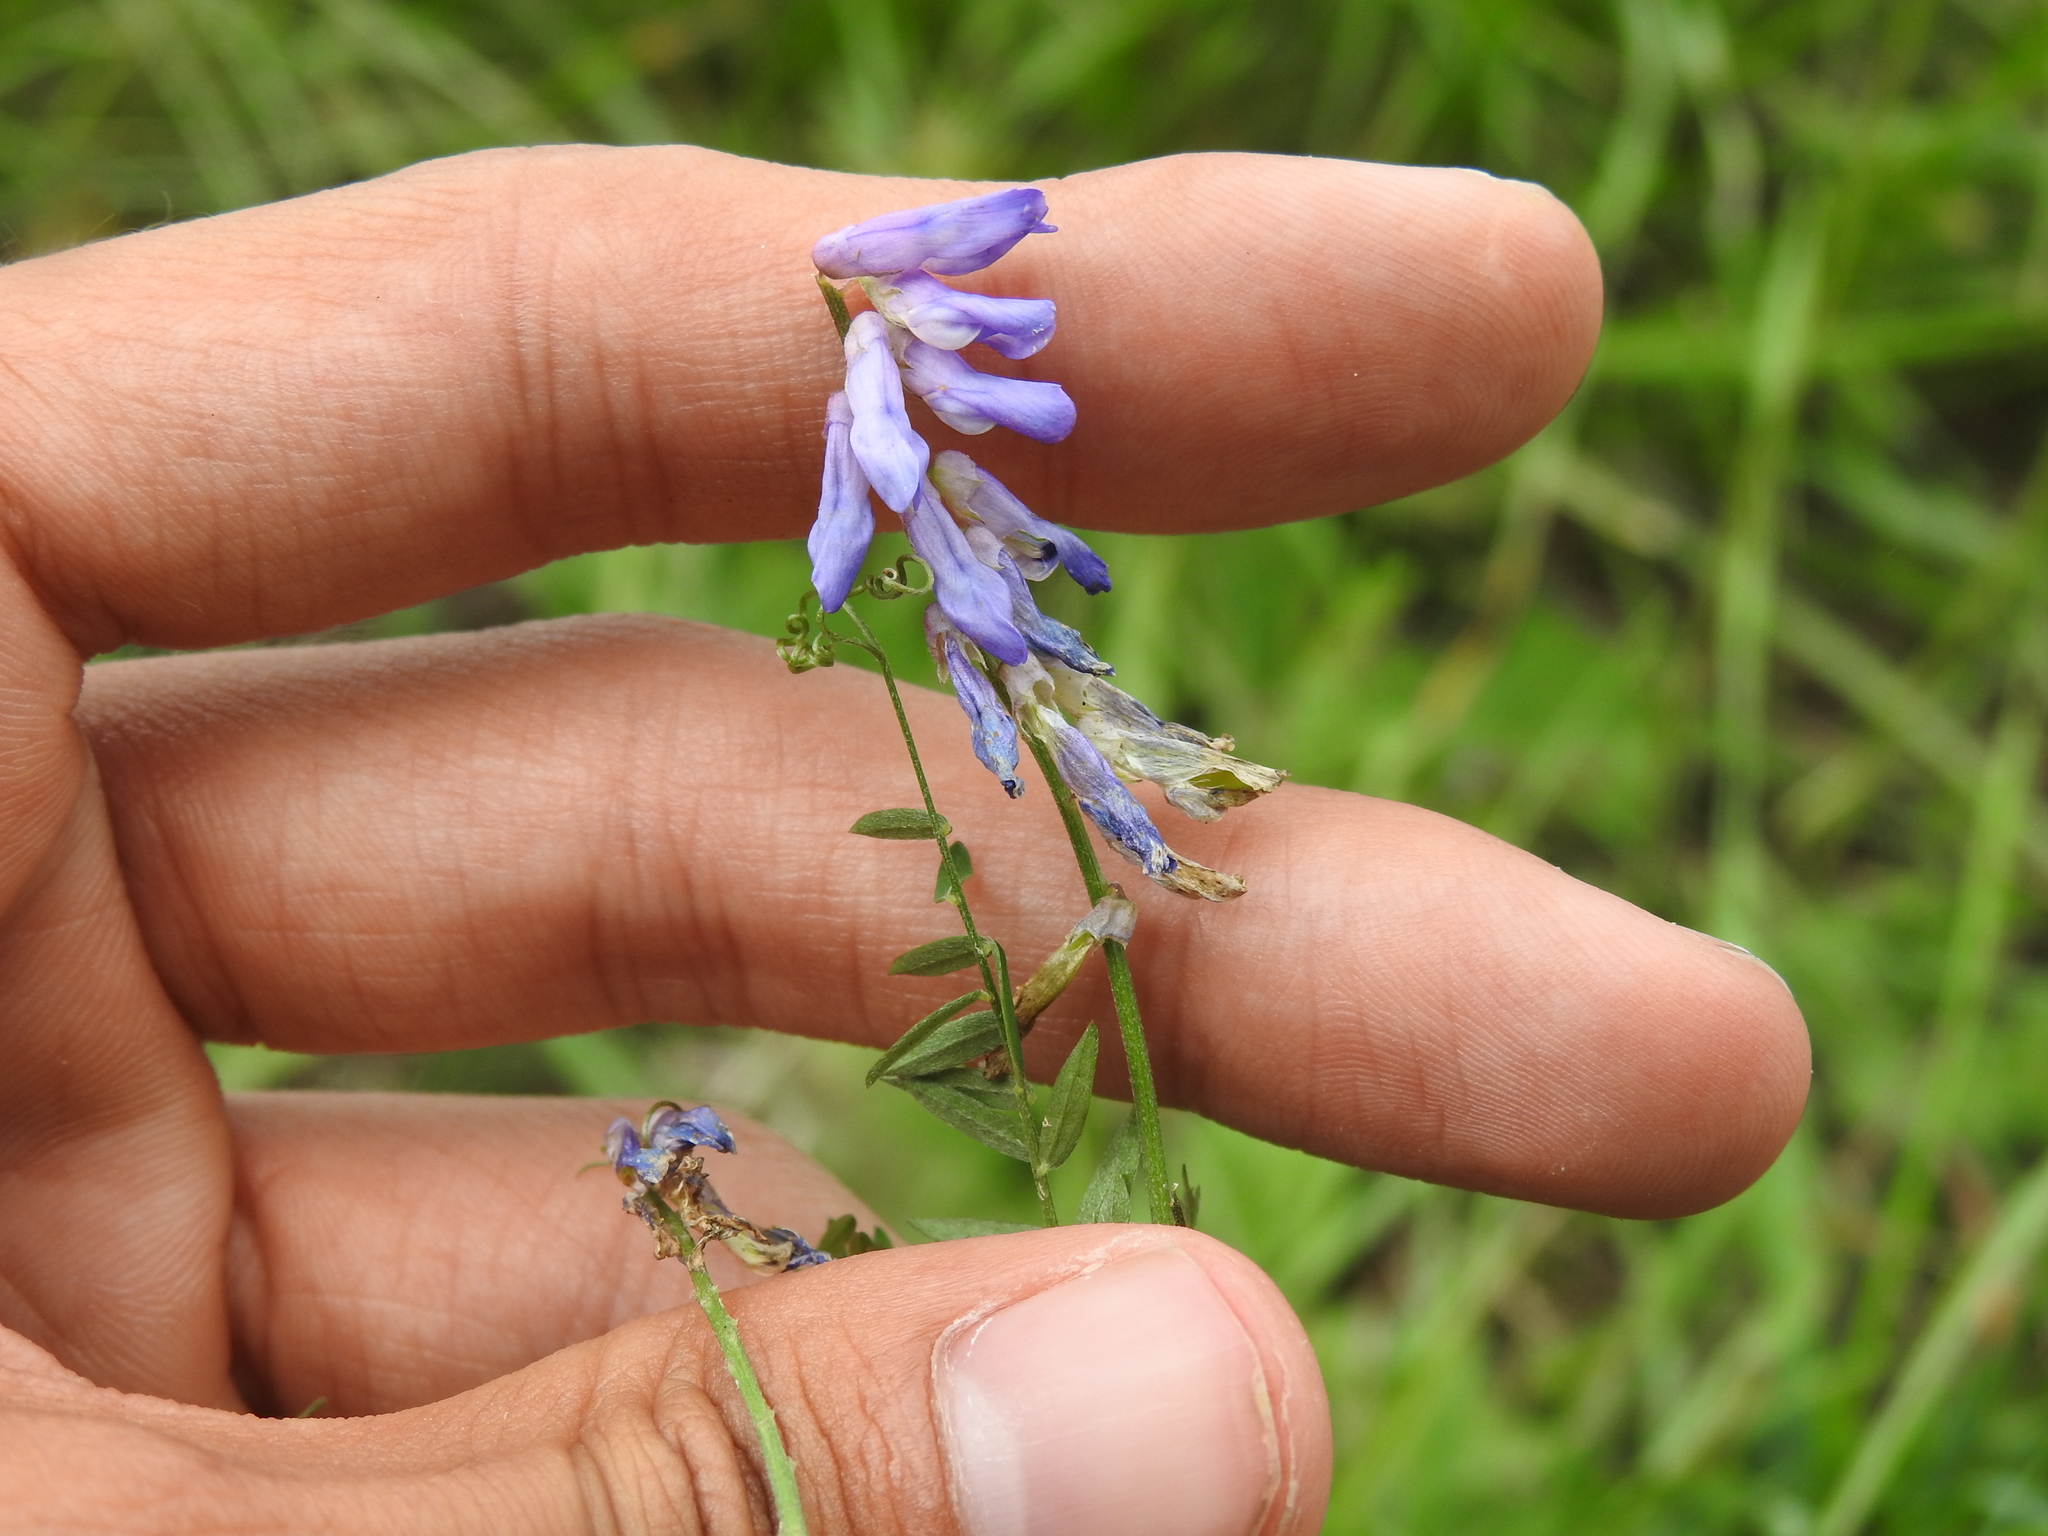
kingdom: Plantae
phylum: Tracheophyta
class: Magnoliopsida
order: Fabales
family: Fabaceae
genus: Vicia
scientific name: Vicia cracca
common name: Bird vetch
